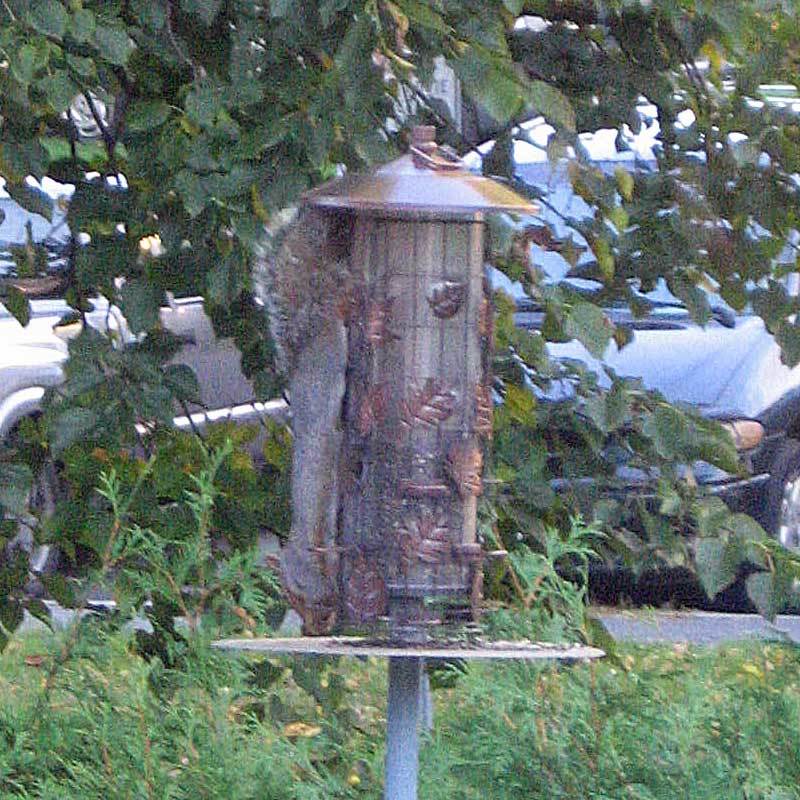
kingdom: Animalia
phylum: Chordata
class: Mammalia
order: Rodentia
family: Sciuridae
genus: Sciurus
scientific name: Sciurus carolinensis
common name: Eastern gray squirrel
